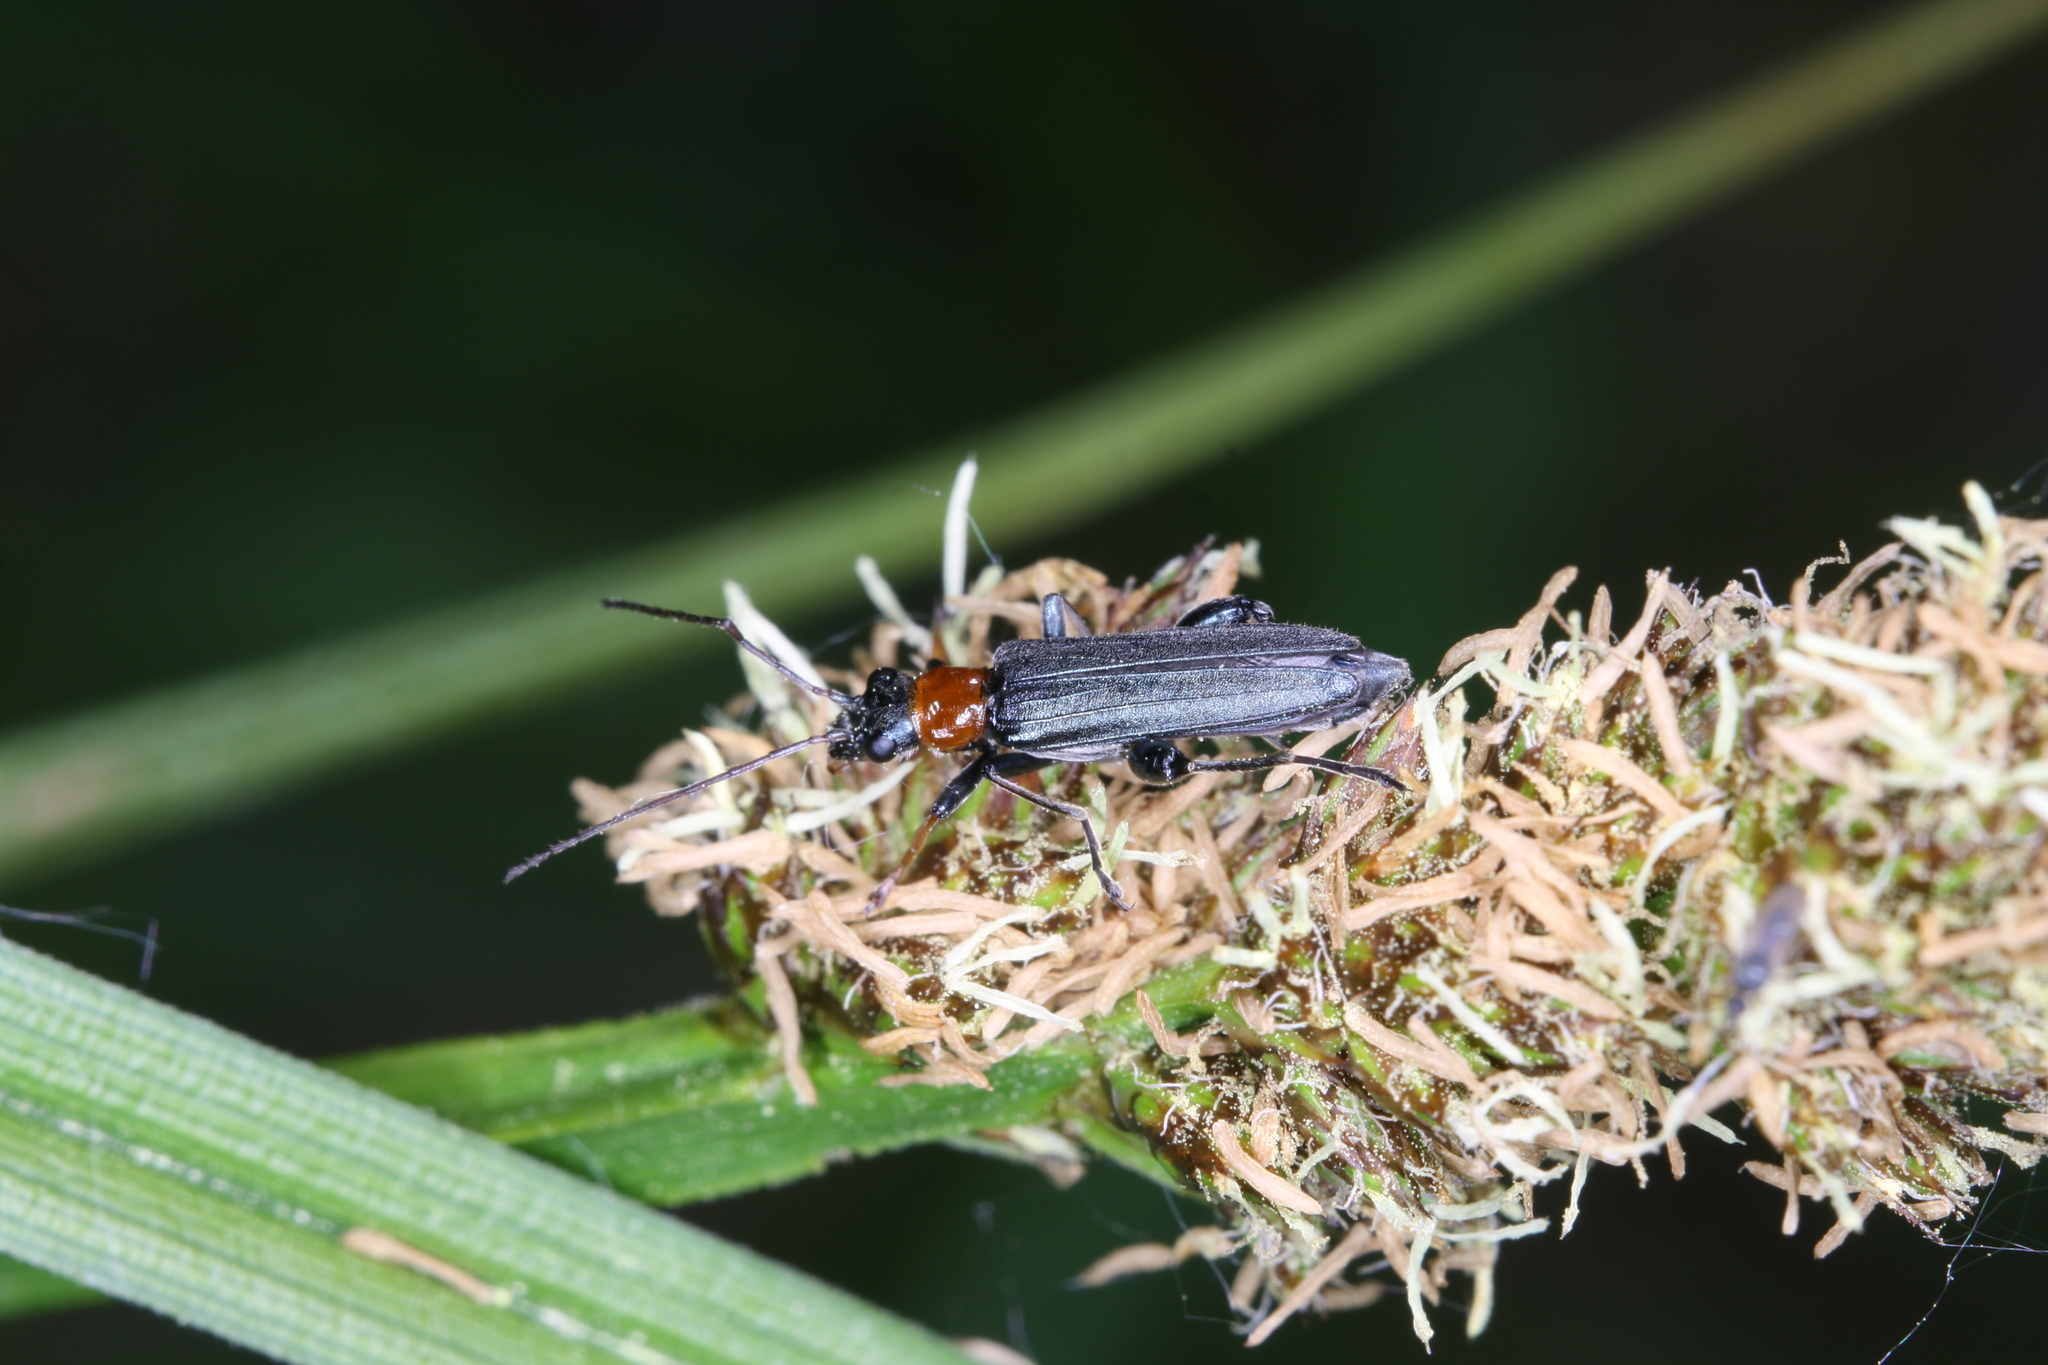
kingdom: Animalia
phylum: Arthropoda
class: Insecta
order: Coleoptera
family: Oedemeridae
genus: Oedemera
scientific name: Oedemera croceicollis
